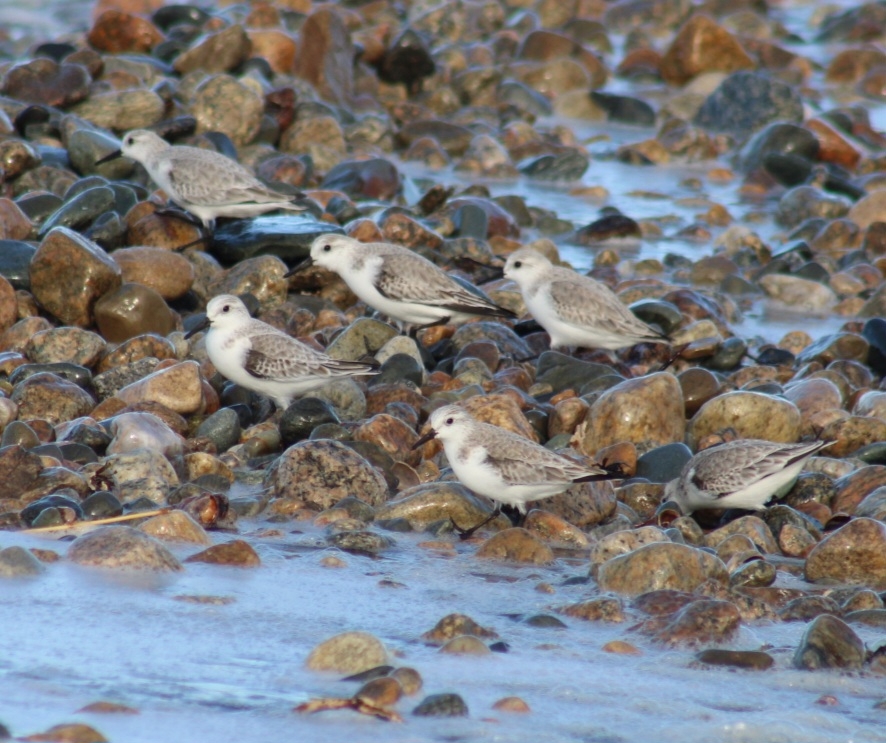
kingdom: Animalia
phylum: Chordata
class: Aves
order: Charadriiformes
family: Scolopacidae
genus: Calidris
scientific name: Calidris alba
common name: Sanderling
